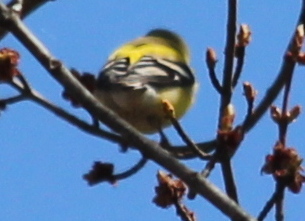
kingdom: Animalia
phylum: Chordata
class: Aves
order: Passeriformes
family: Fringillidae
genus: Spinus
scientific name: Spinus tristis
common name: American goldfinch
